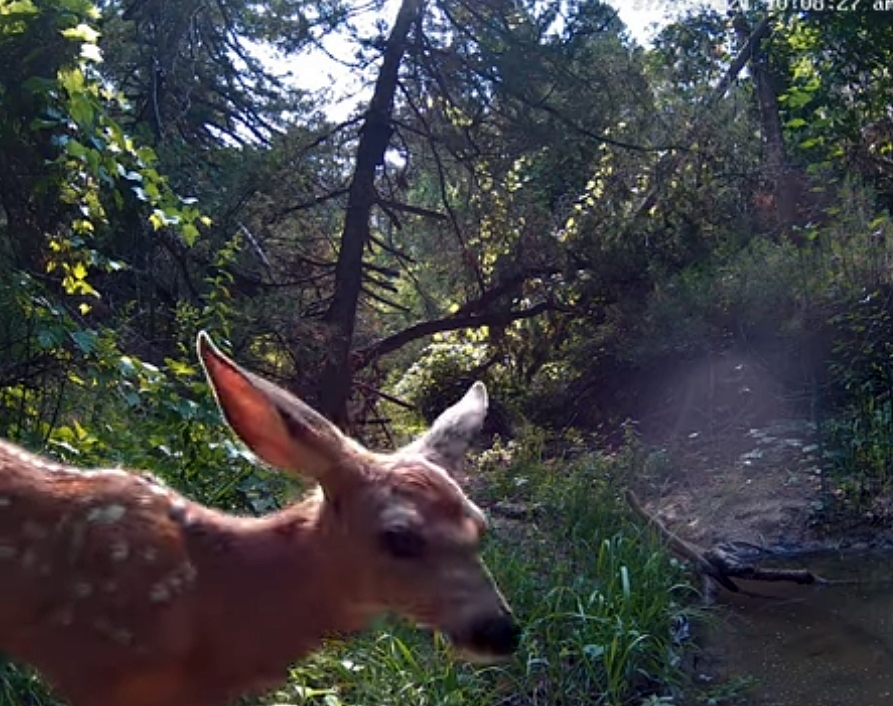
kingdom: Animalia
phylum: Chordata
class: Mammalia
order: Artiodactyla
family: Cervidae
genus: Odocoileus
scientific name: Odocoileus hemionus
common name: Mule deer
